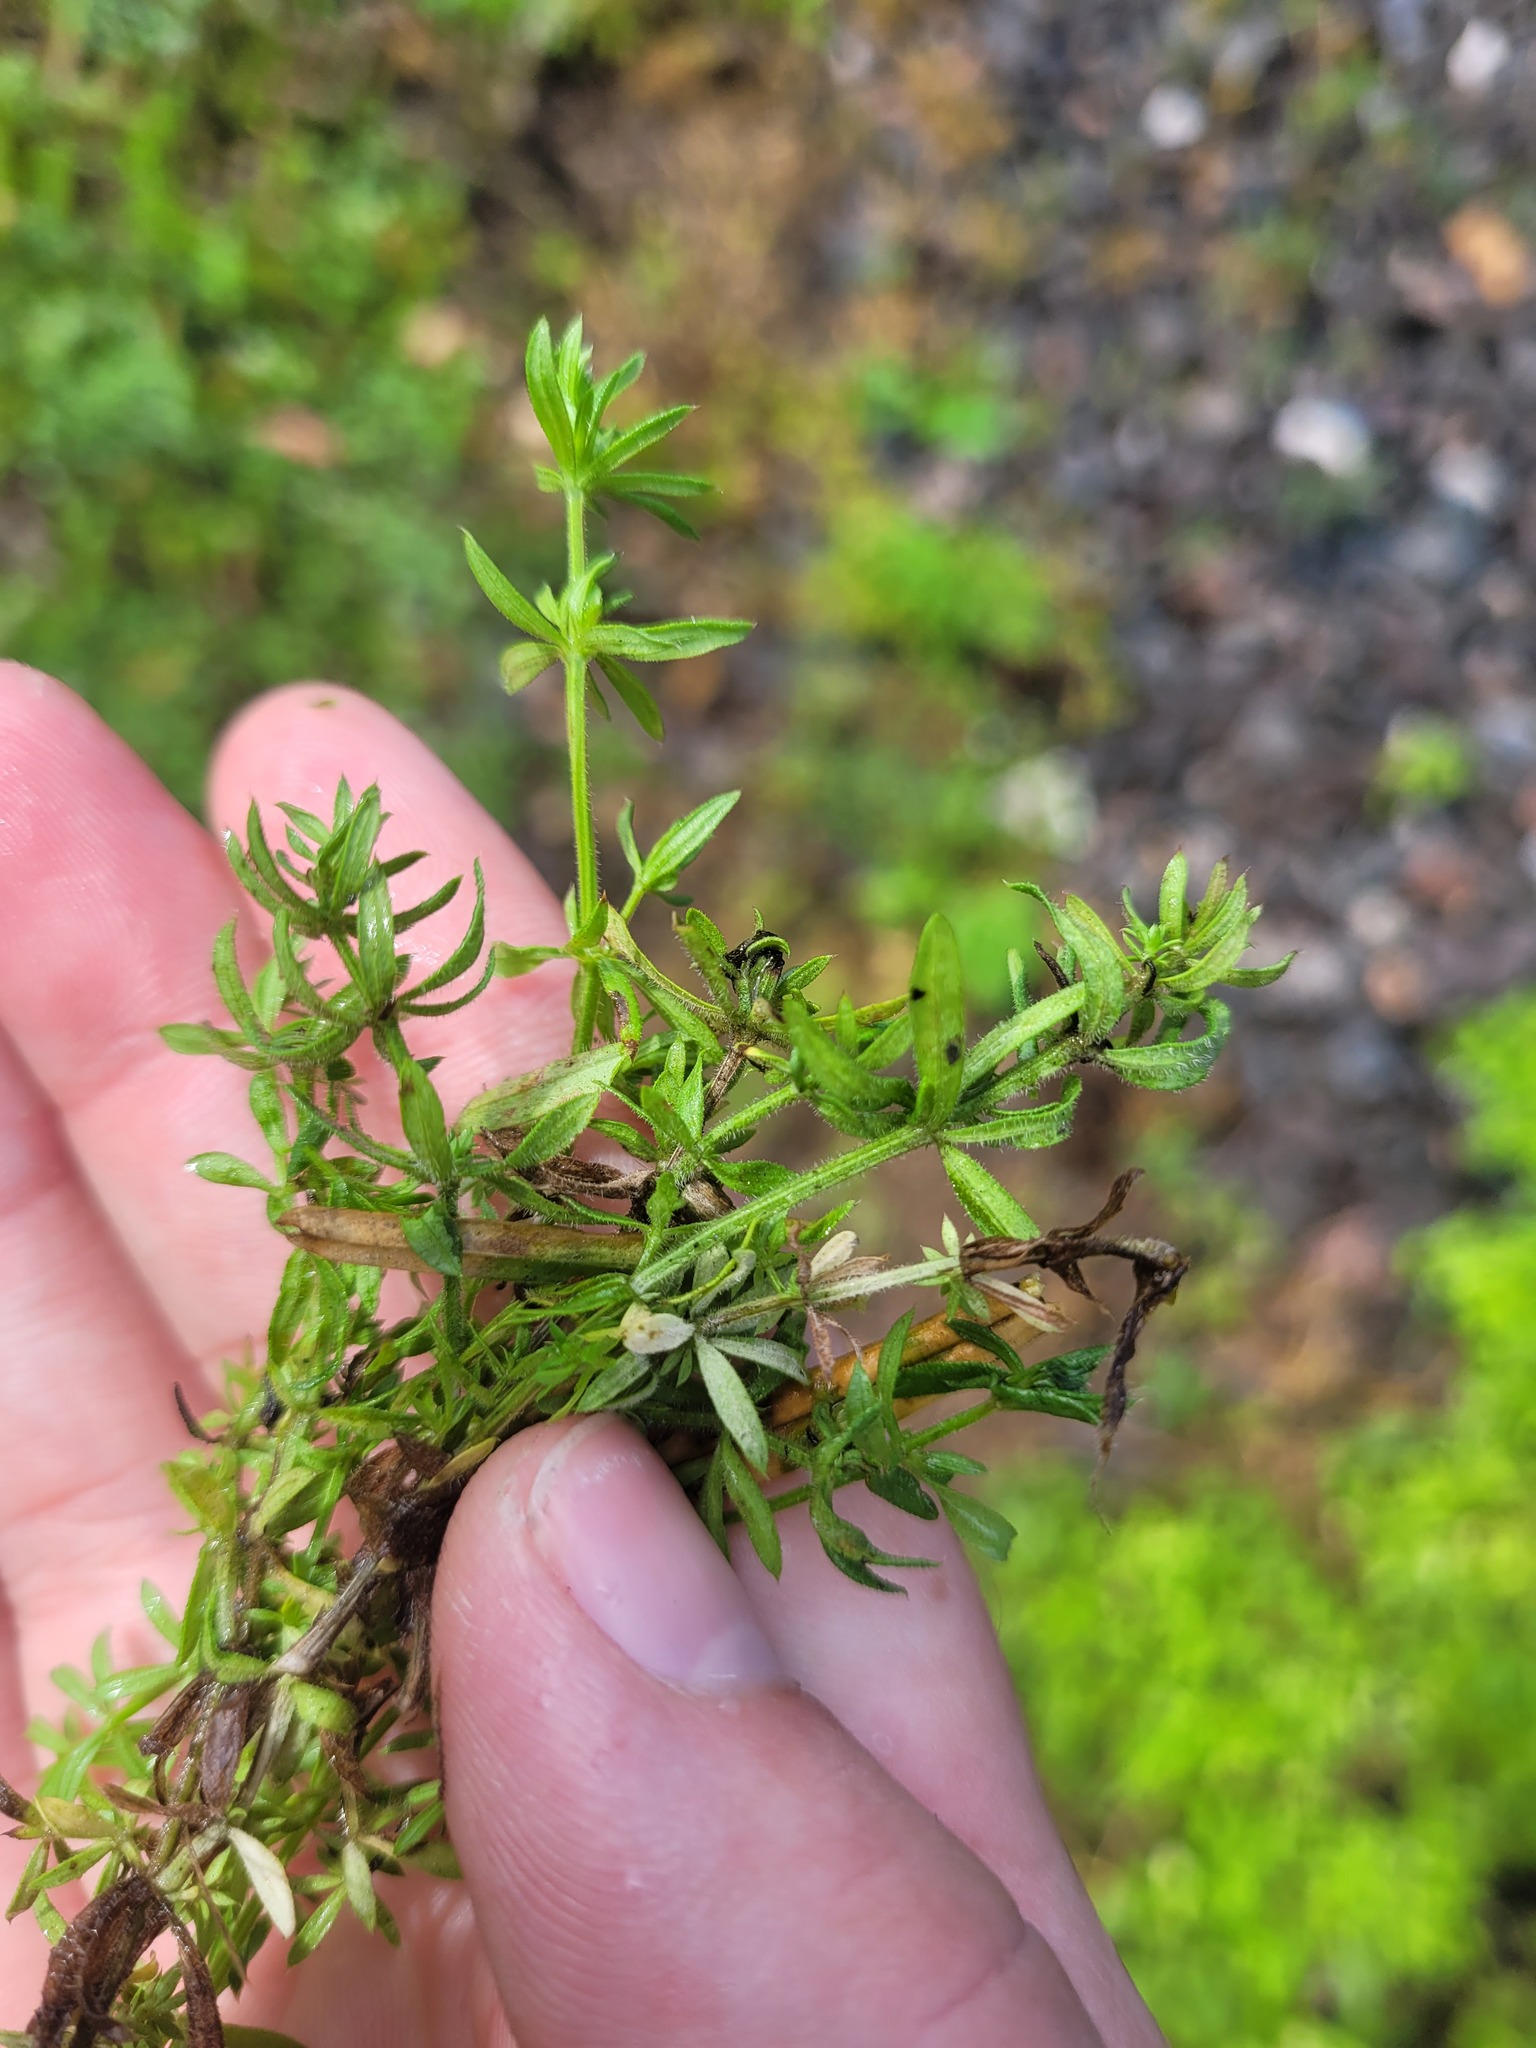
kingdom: Plantae
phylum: Tracheophyta
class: Magnoliopsida
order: Gentianales
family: Rubiaceae
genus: Galium
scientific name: Galium humifusum
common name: Spreading bedstraw
